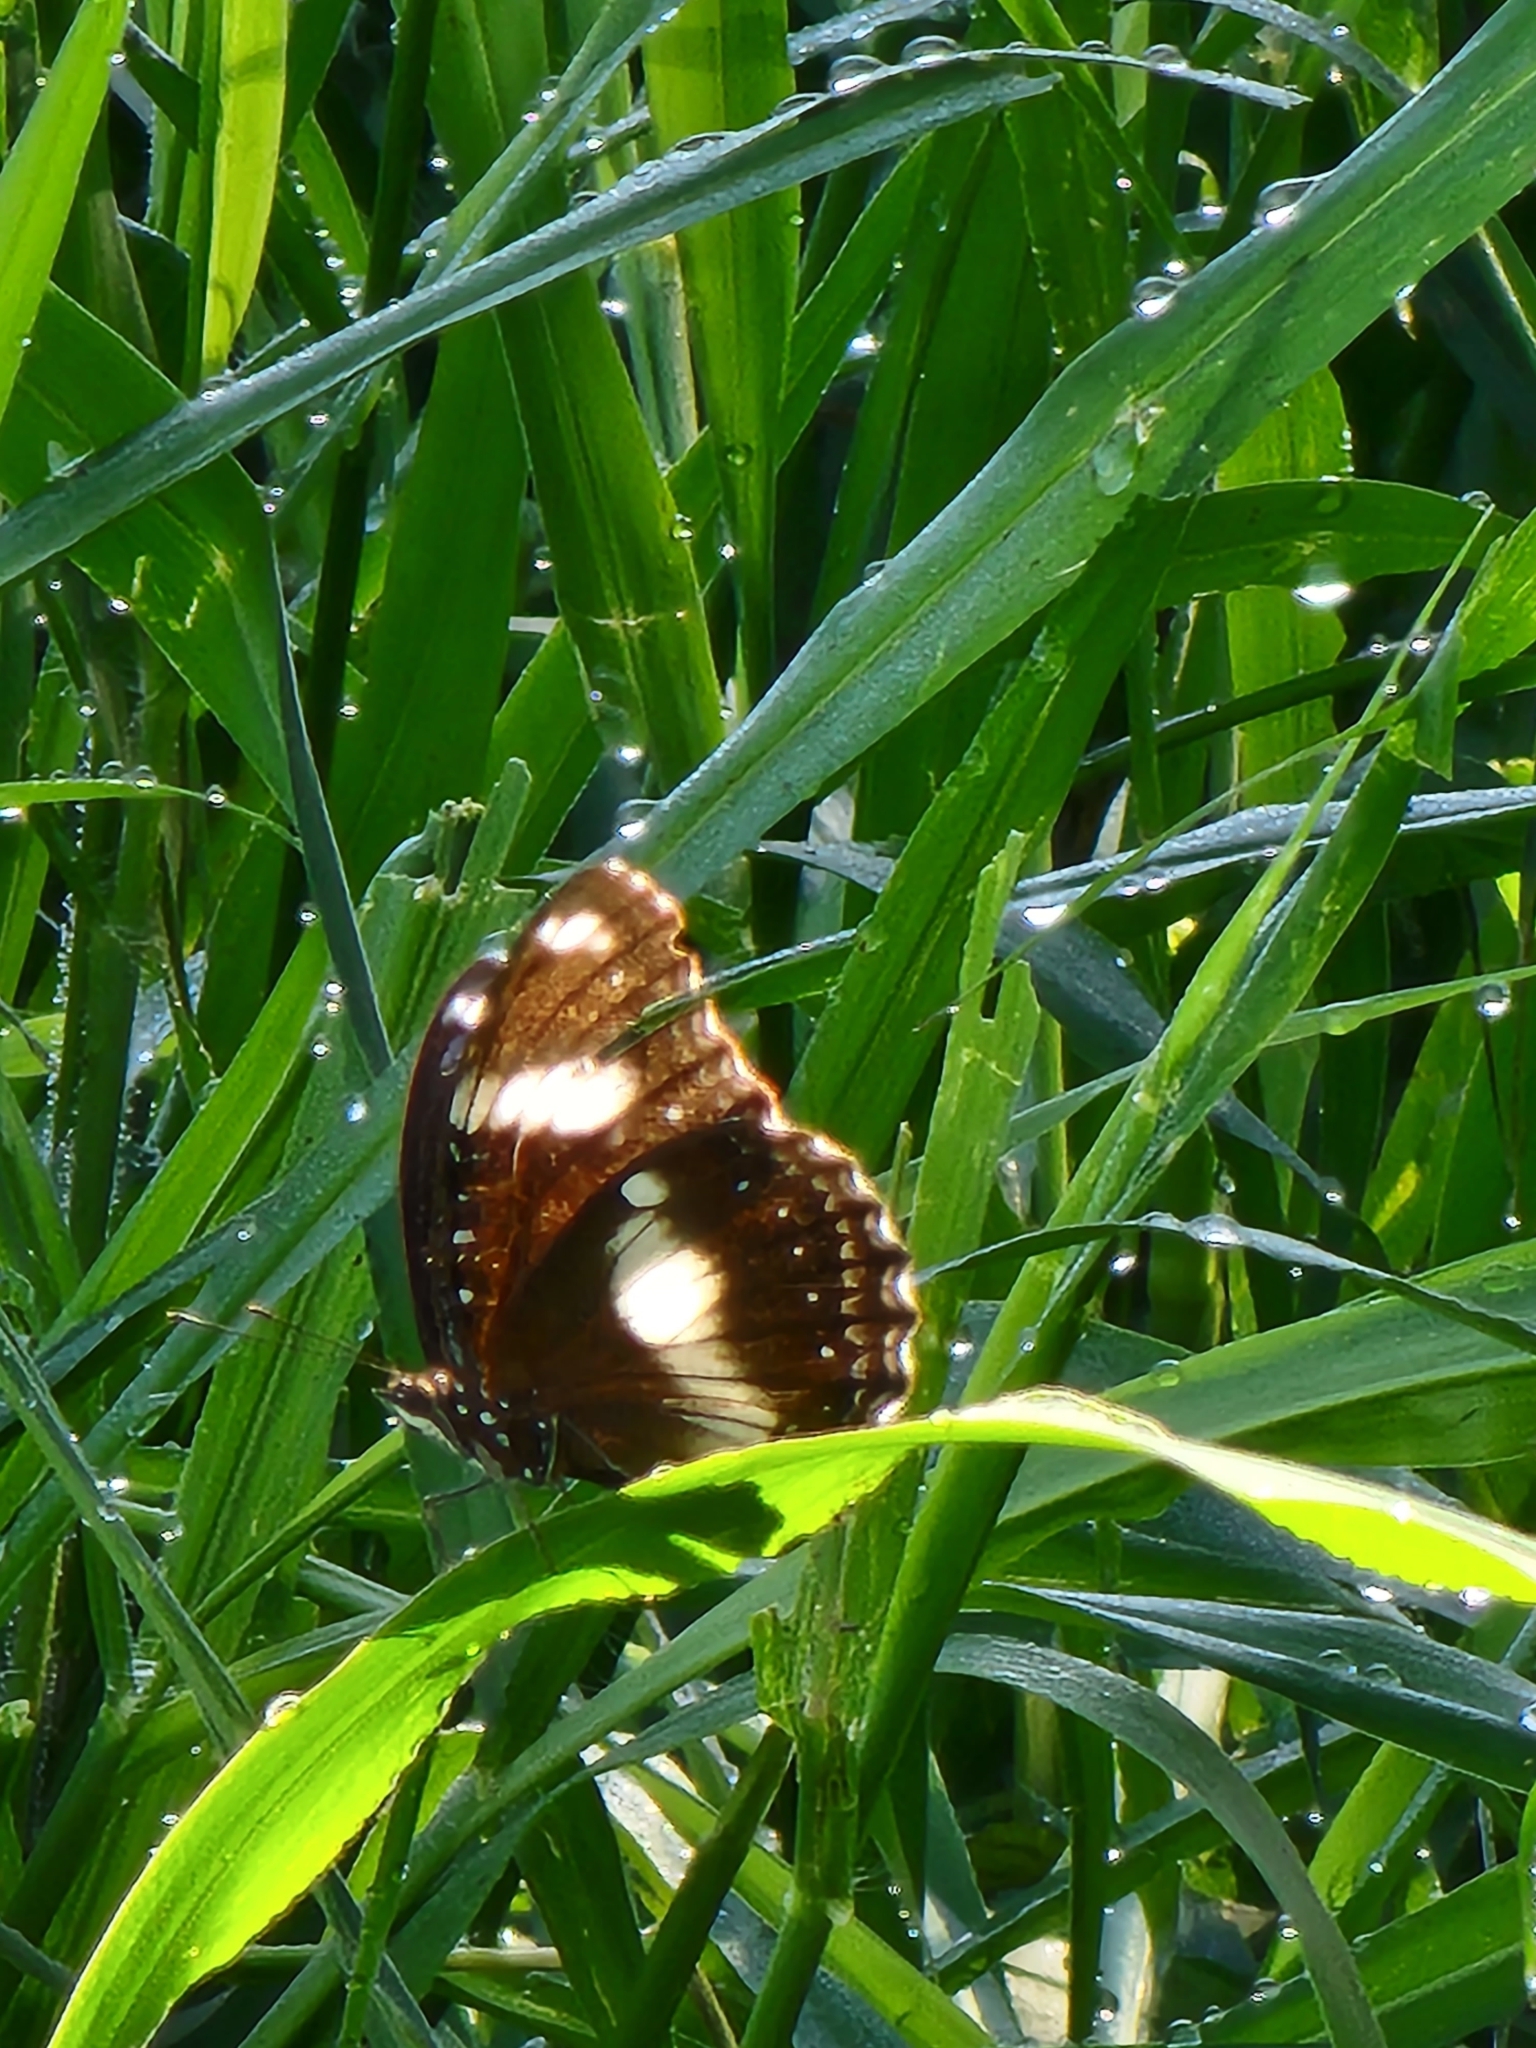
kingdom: Animalia
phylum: Arthropoda
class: Insecta
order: Lepidoptera
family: Nymphalidae
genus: Hypolimnas
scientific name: Hypolimnas bolina
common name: Great eggfly
